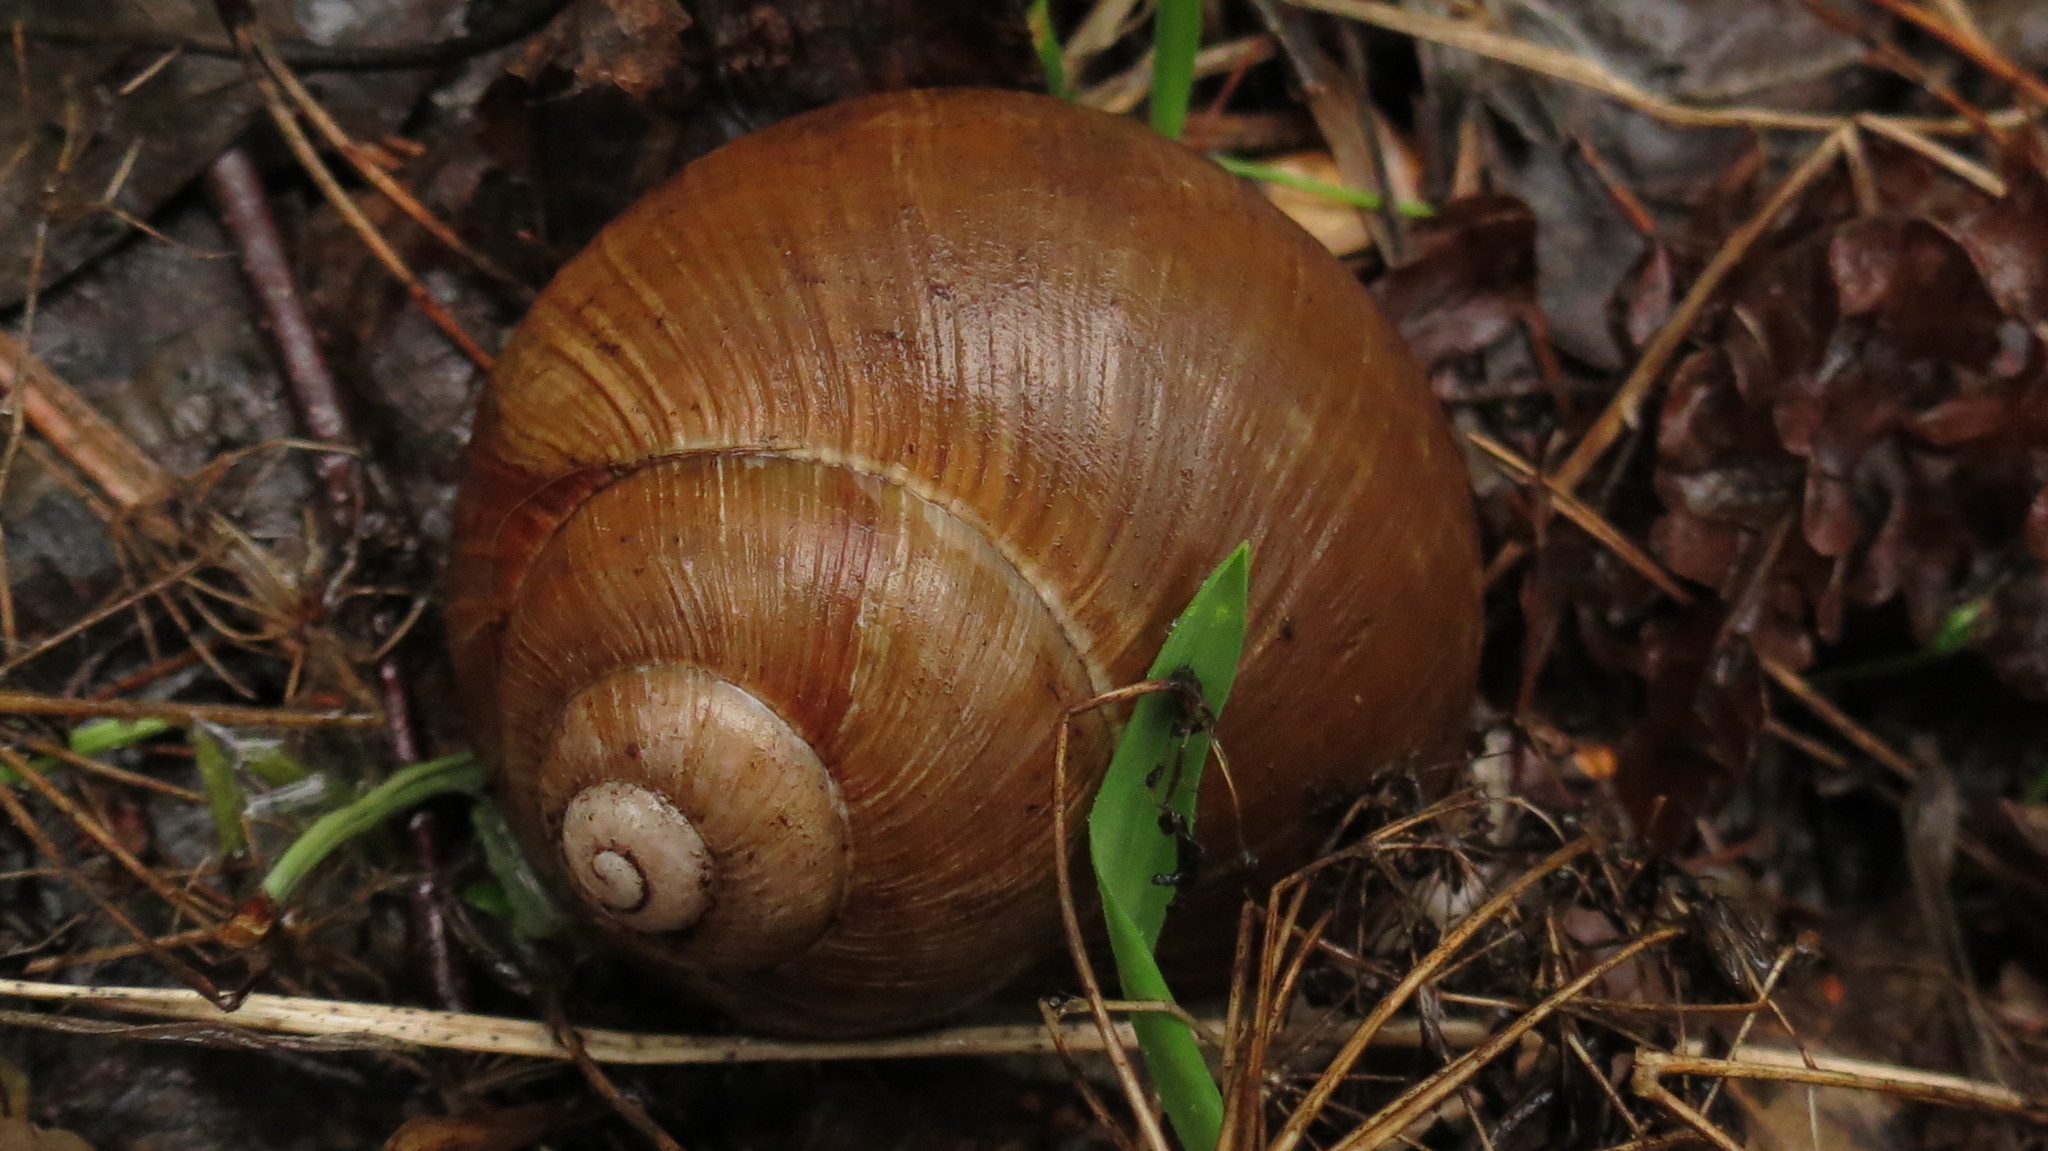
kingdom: Animalia
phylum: Mollusca
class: Gastropoda
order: Stylommatophora
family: Helicidae
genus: Helix
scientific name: Helix pomatia
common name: Roman snail
